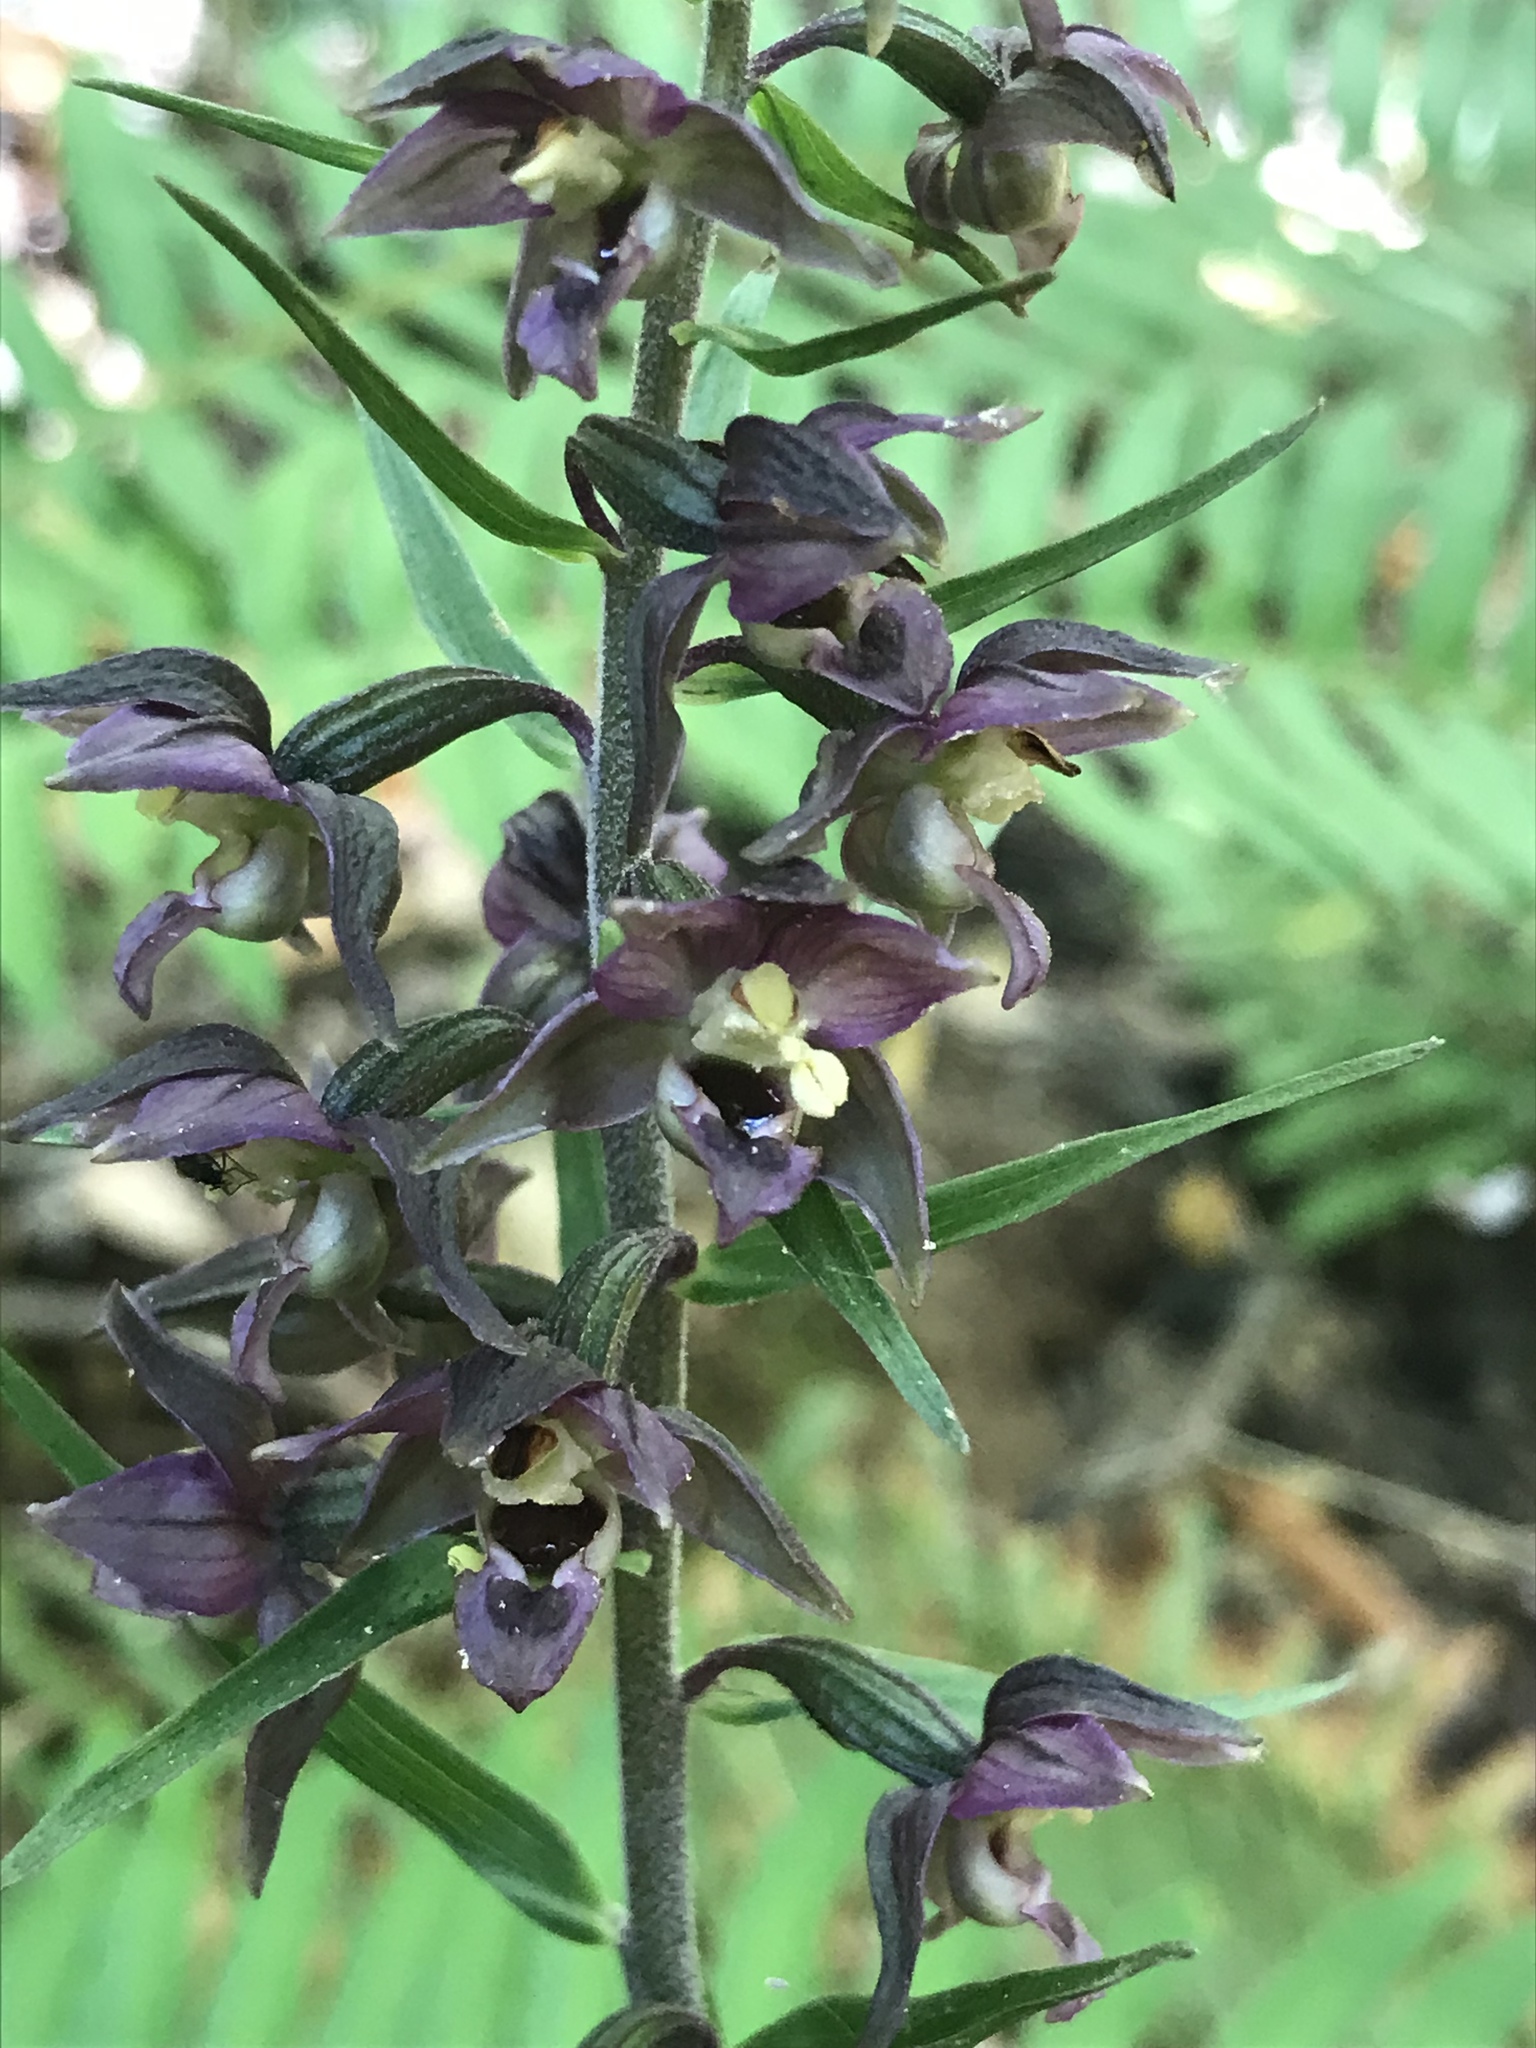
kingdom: Plantae
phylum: Tracheophyta
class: Liliopsida
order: Asparagales
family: Orchidaceae
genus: Epipactis
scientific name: Epipactis helleborine
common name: Broad-leaved helleborine
